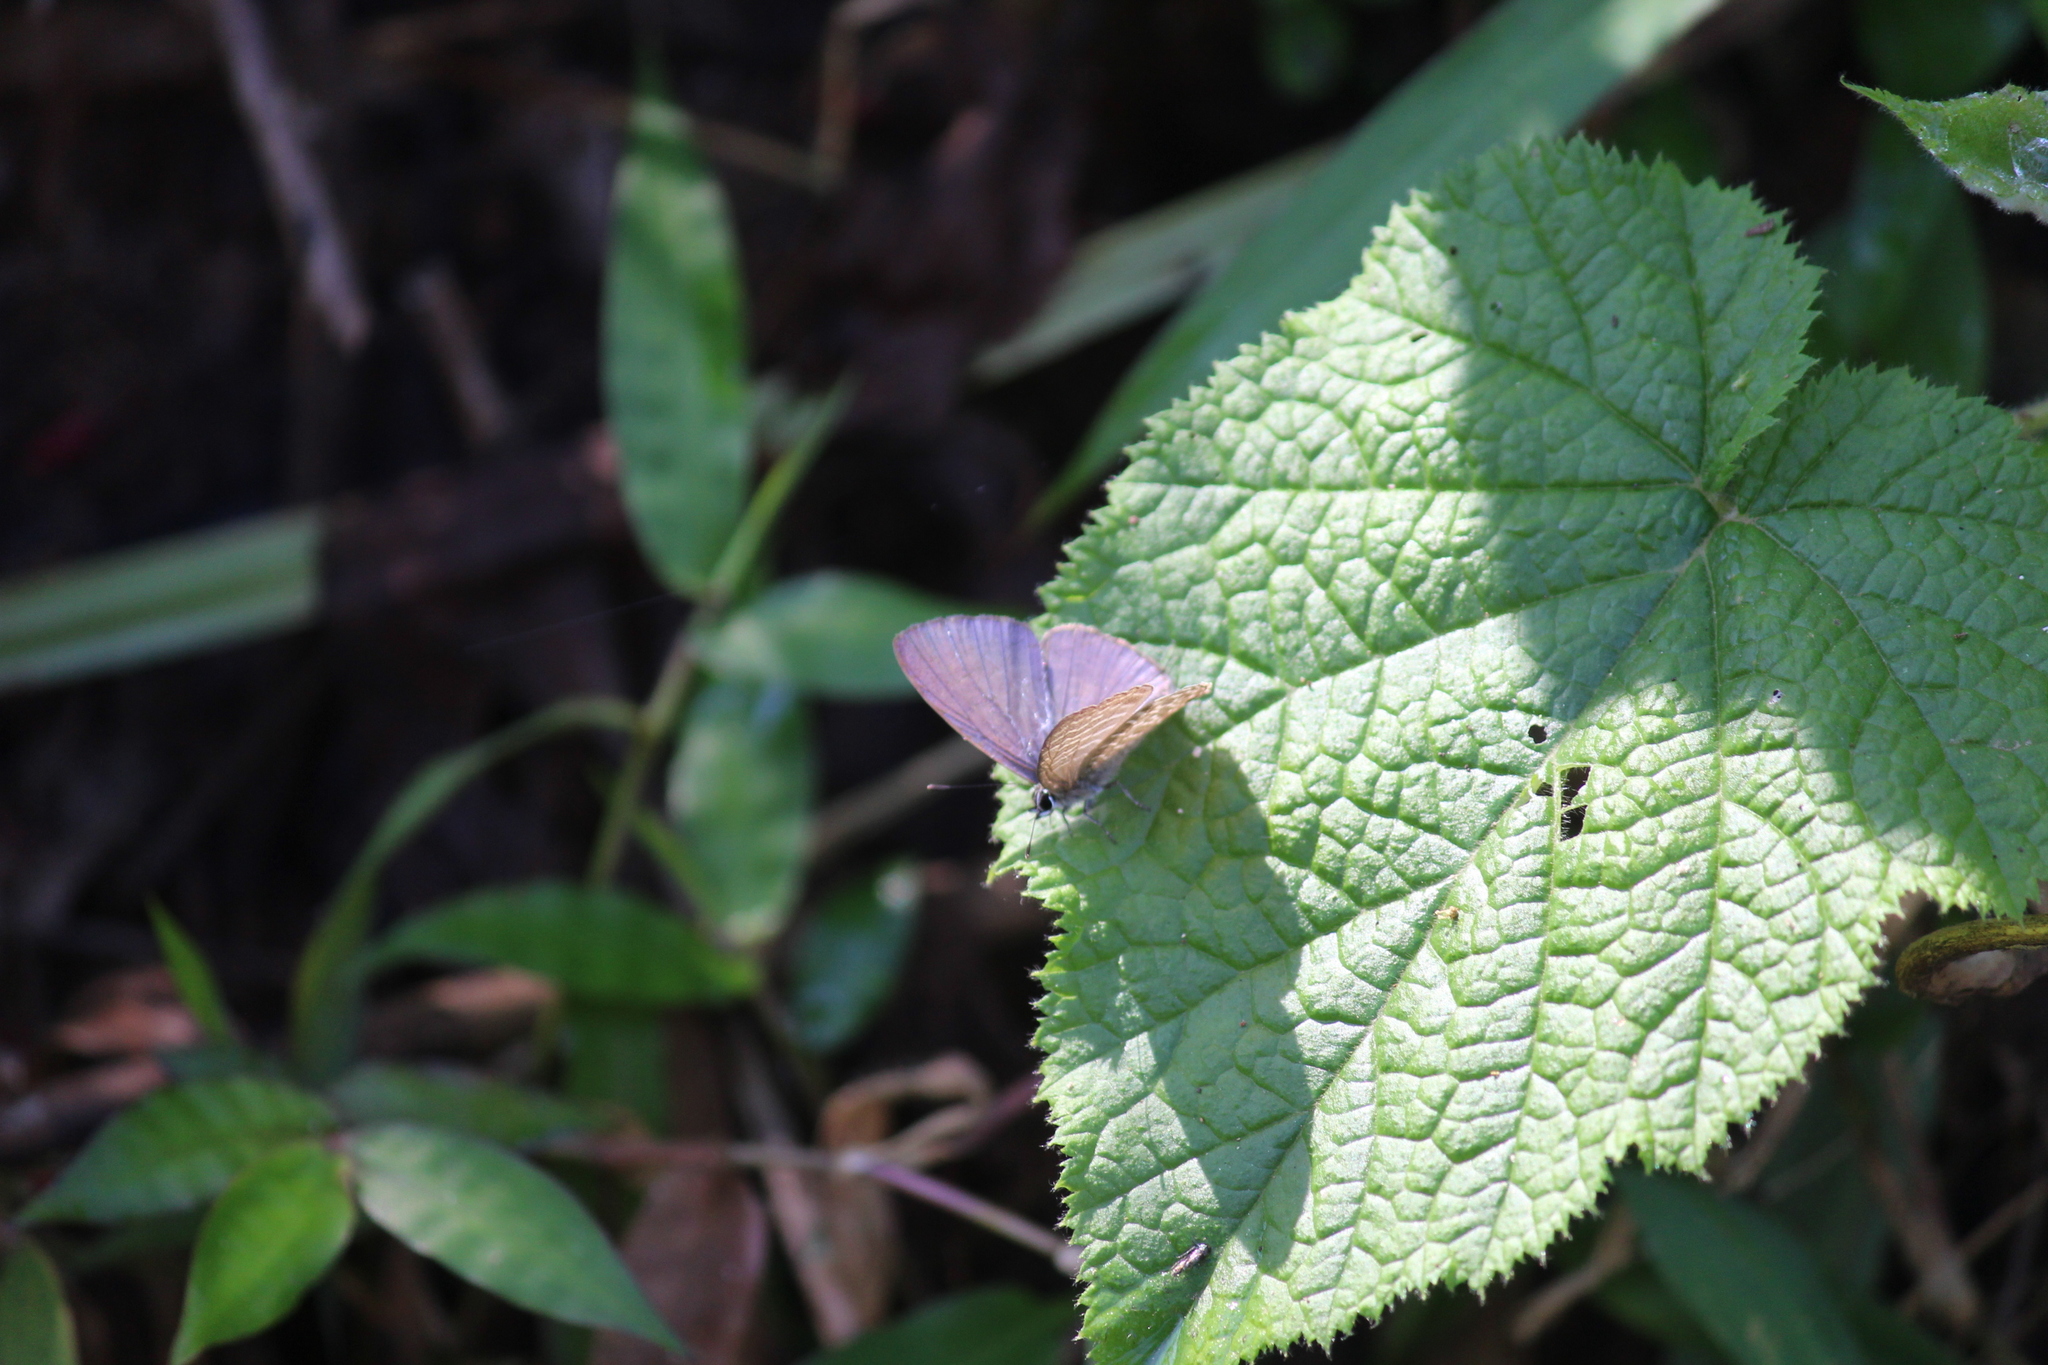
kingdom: Animalia
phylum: Arthropoda
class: Insecta
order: Lepidoptera
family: Lycaenidae
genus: Nacaduba
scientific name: Nacaduba kurava
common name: Transparent 6-line blue
